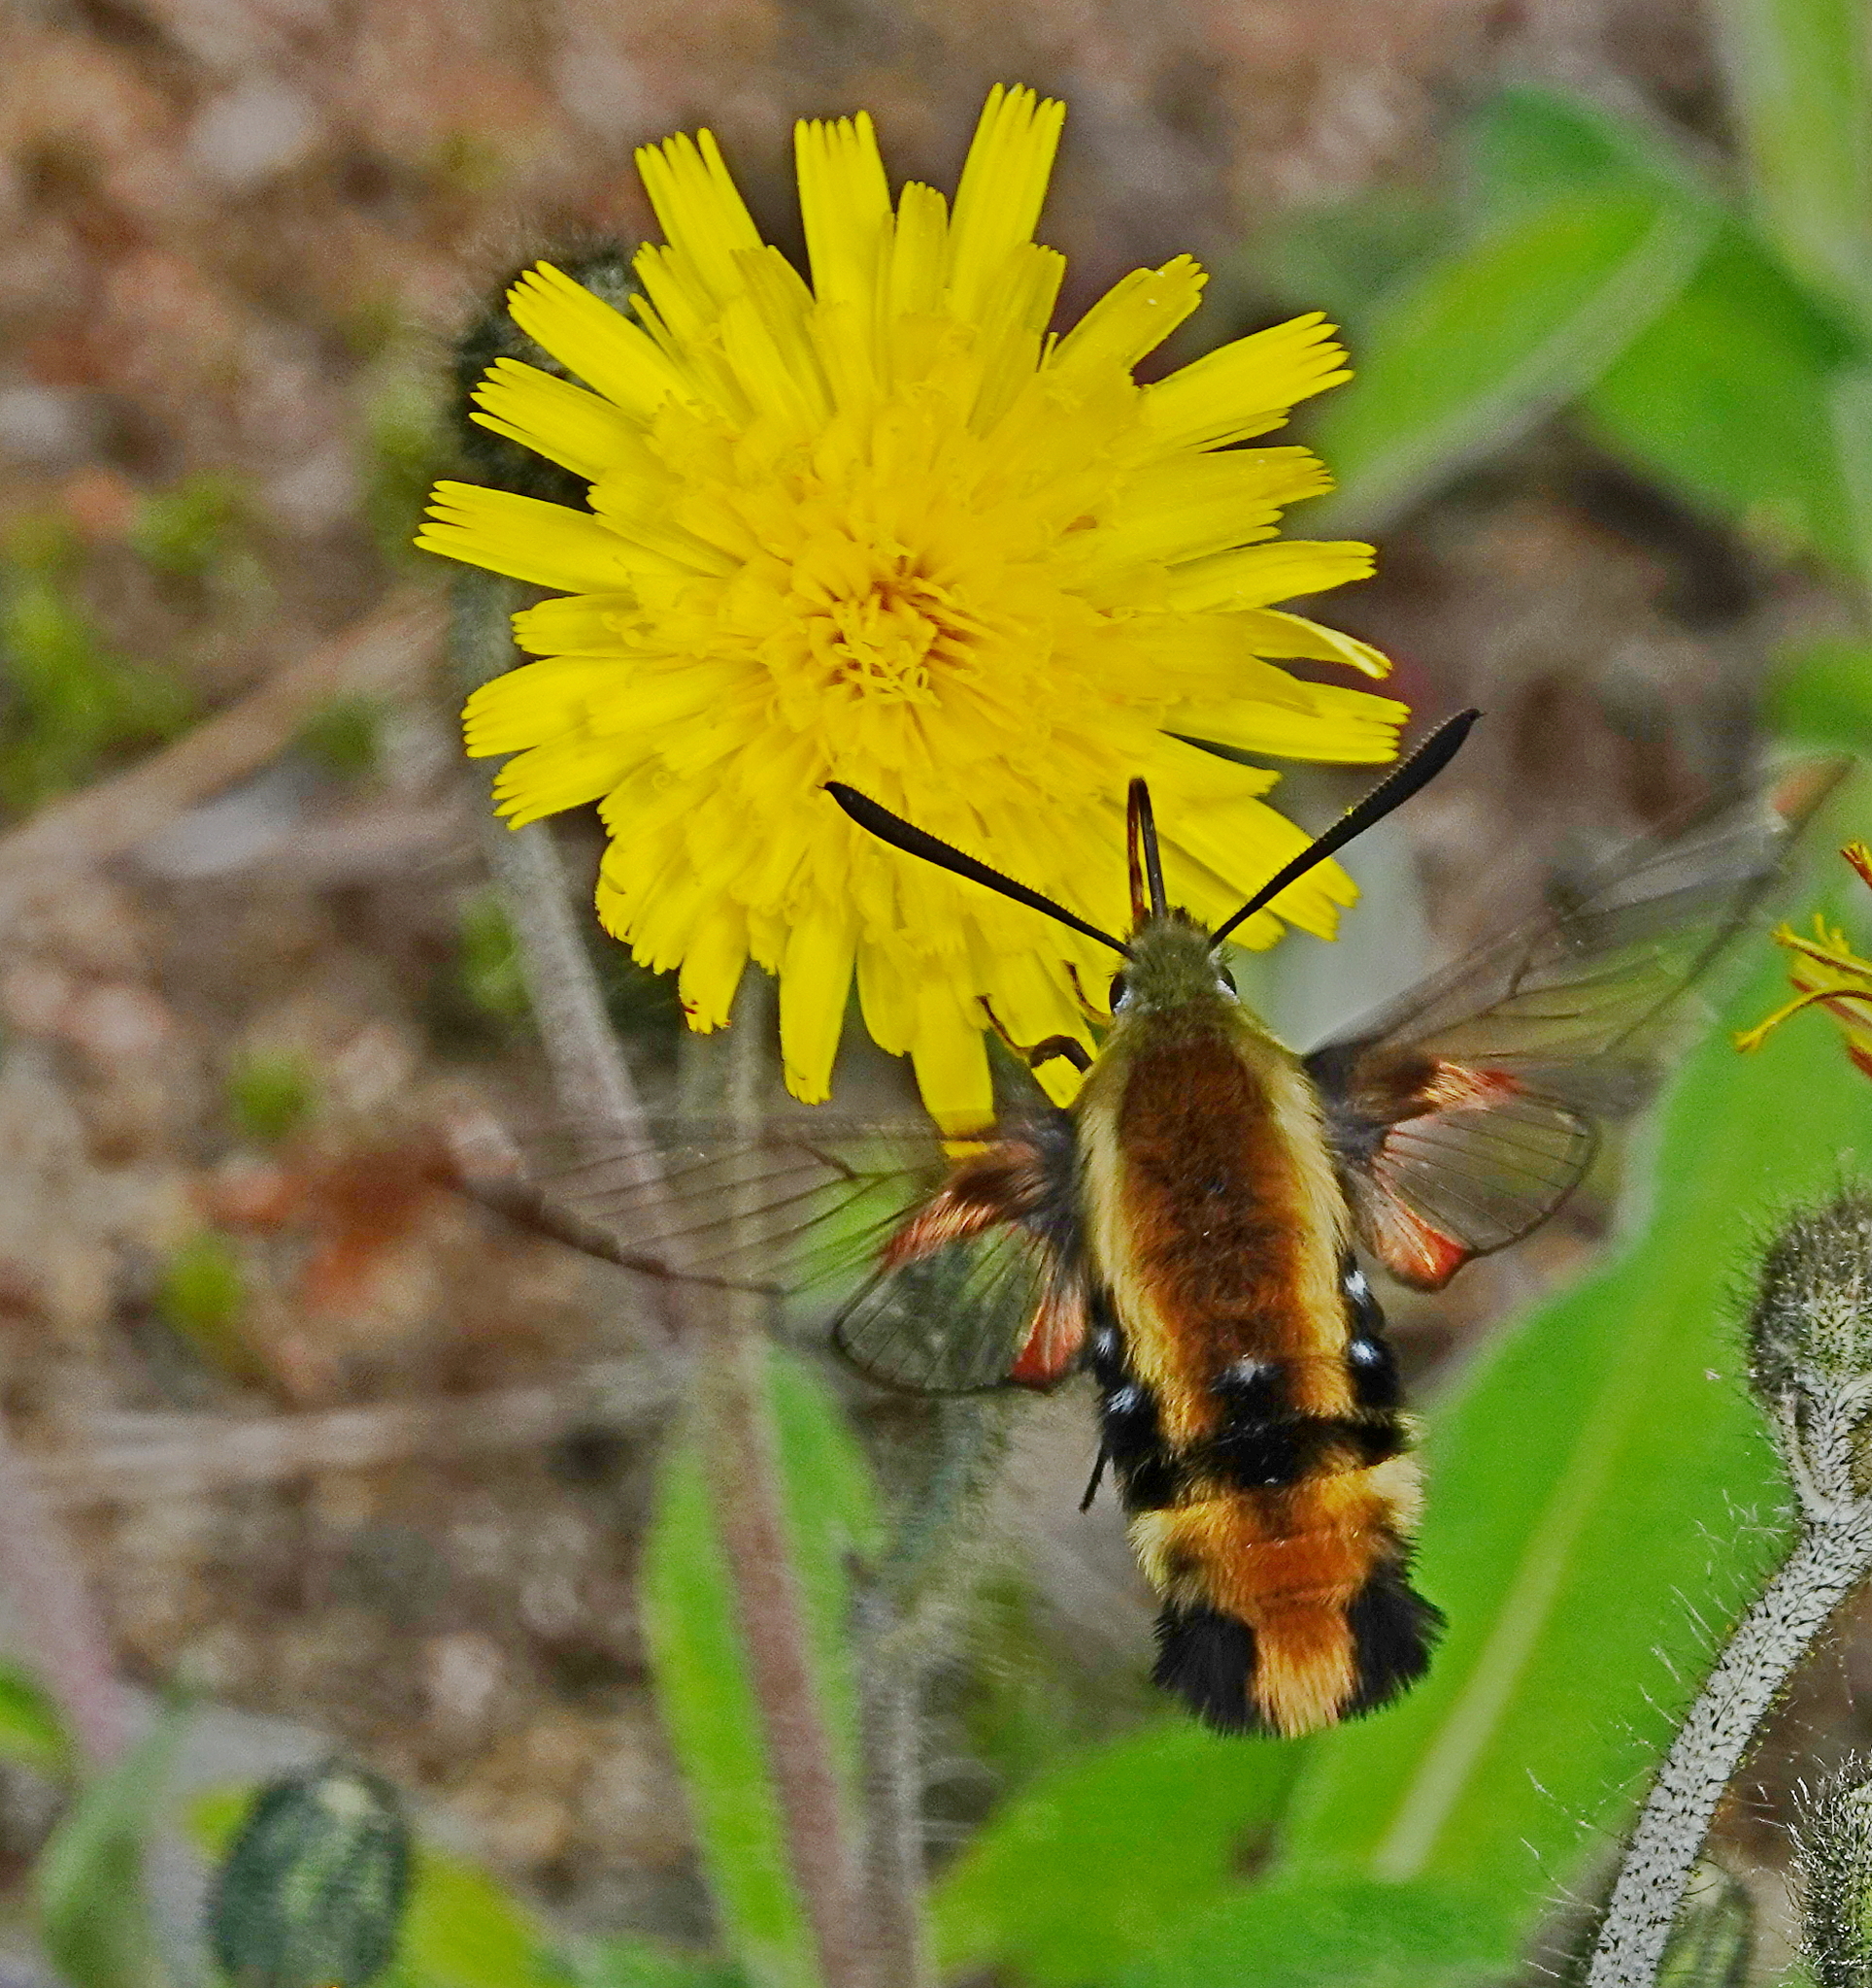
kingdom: Animalia
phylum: Arthropoda
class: Insecta
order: Lepidoptera
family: Sphingidae
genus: Hemaris
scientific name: Hemaris diffinis
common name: Bumblebee moth
